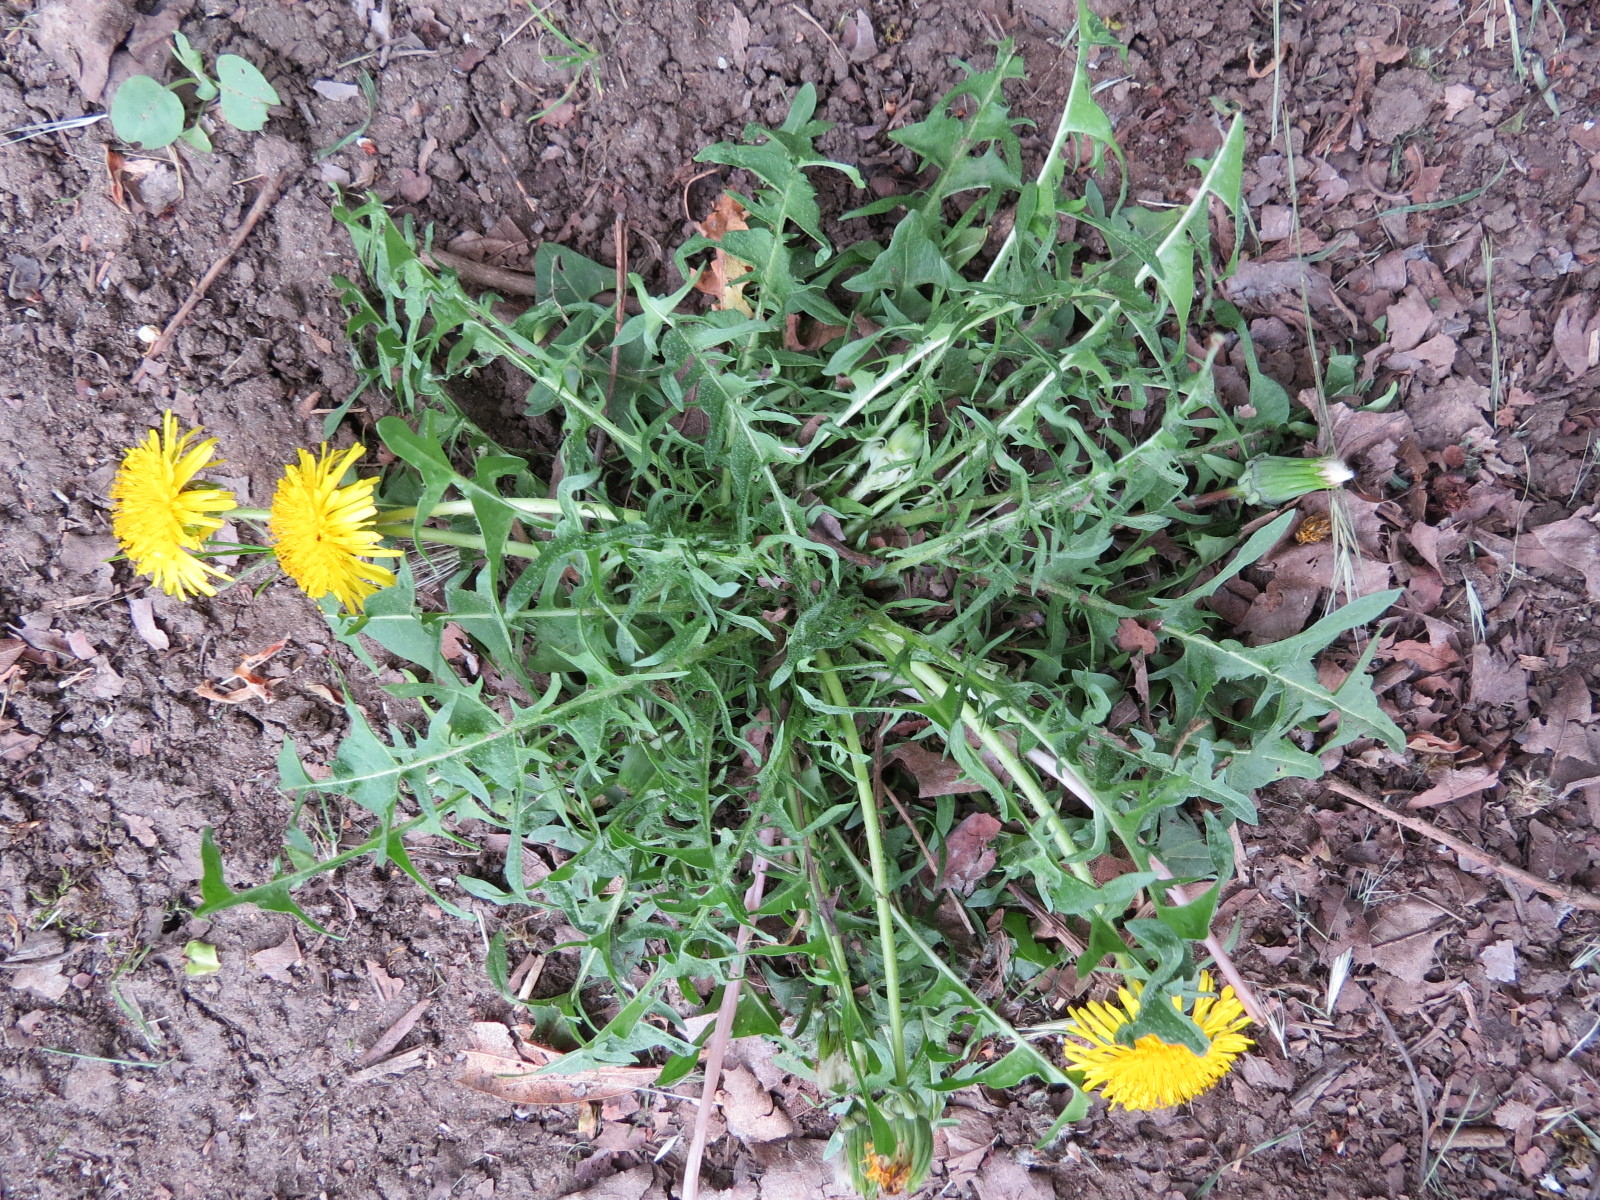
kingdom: Plantae
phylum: Tracheophyta
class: Magnoliopsida
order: Asterales
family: Asteraceae
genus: Taraxacum
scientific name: Taraxacum officinale
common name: Common dandelion
